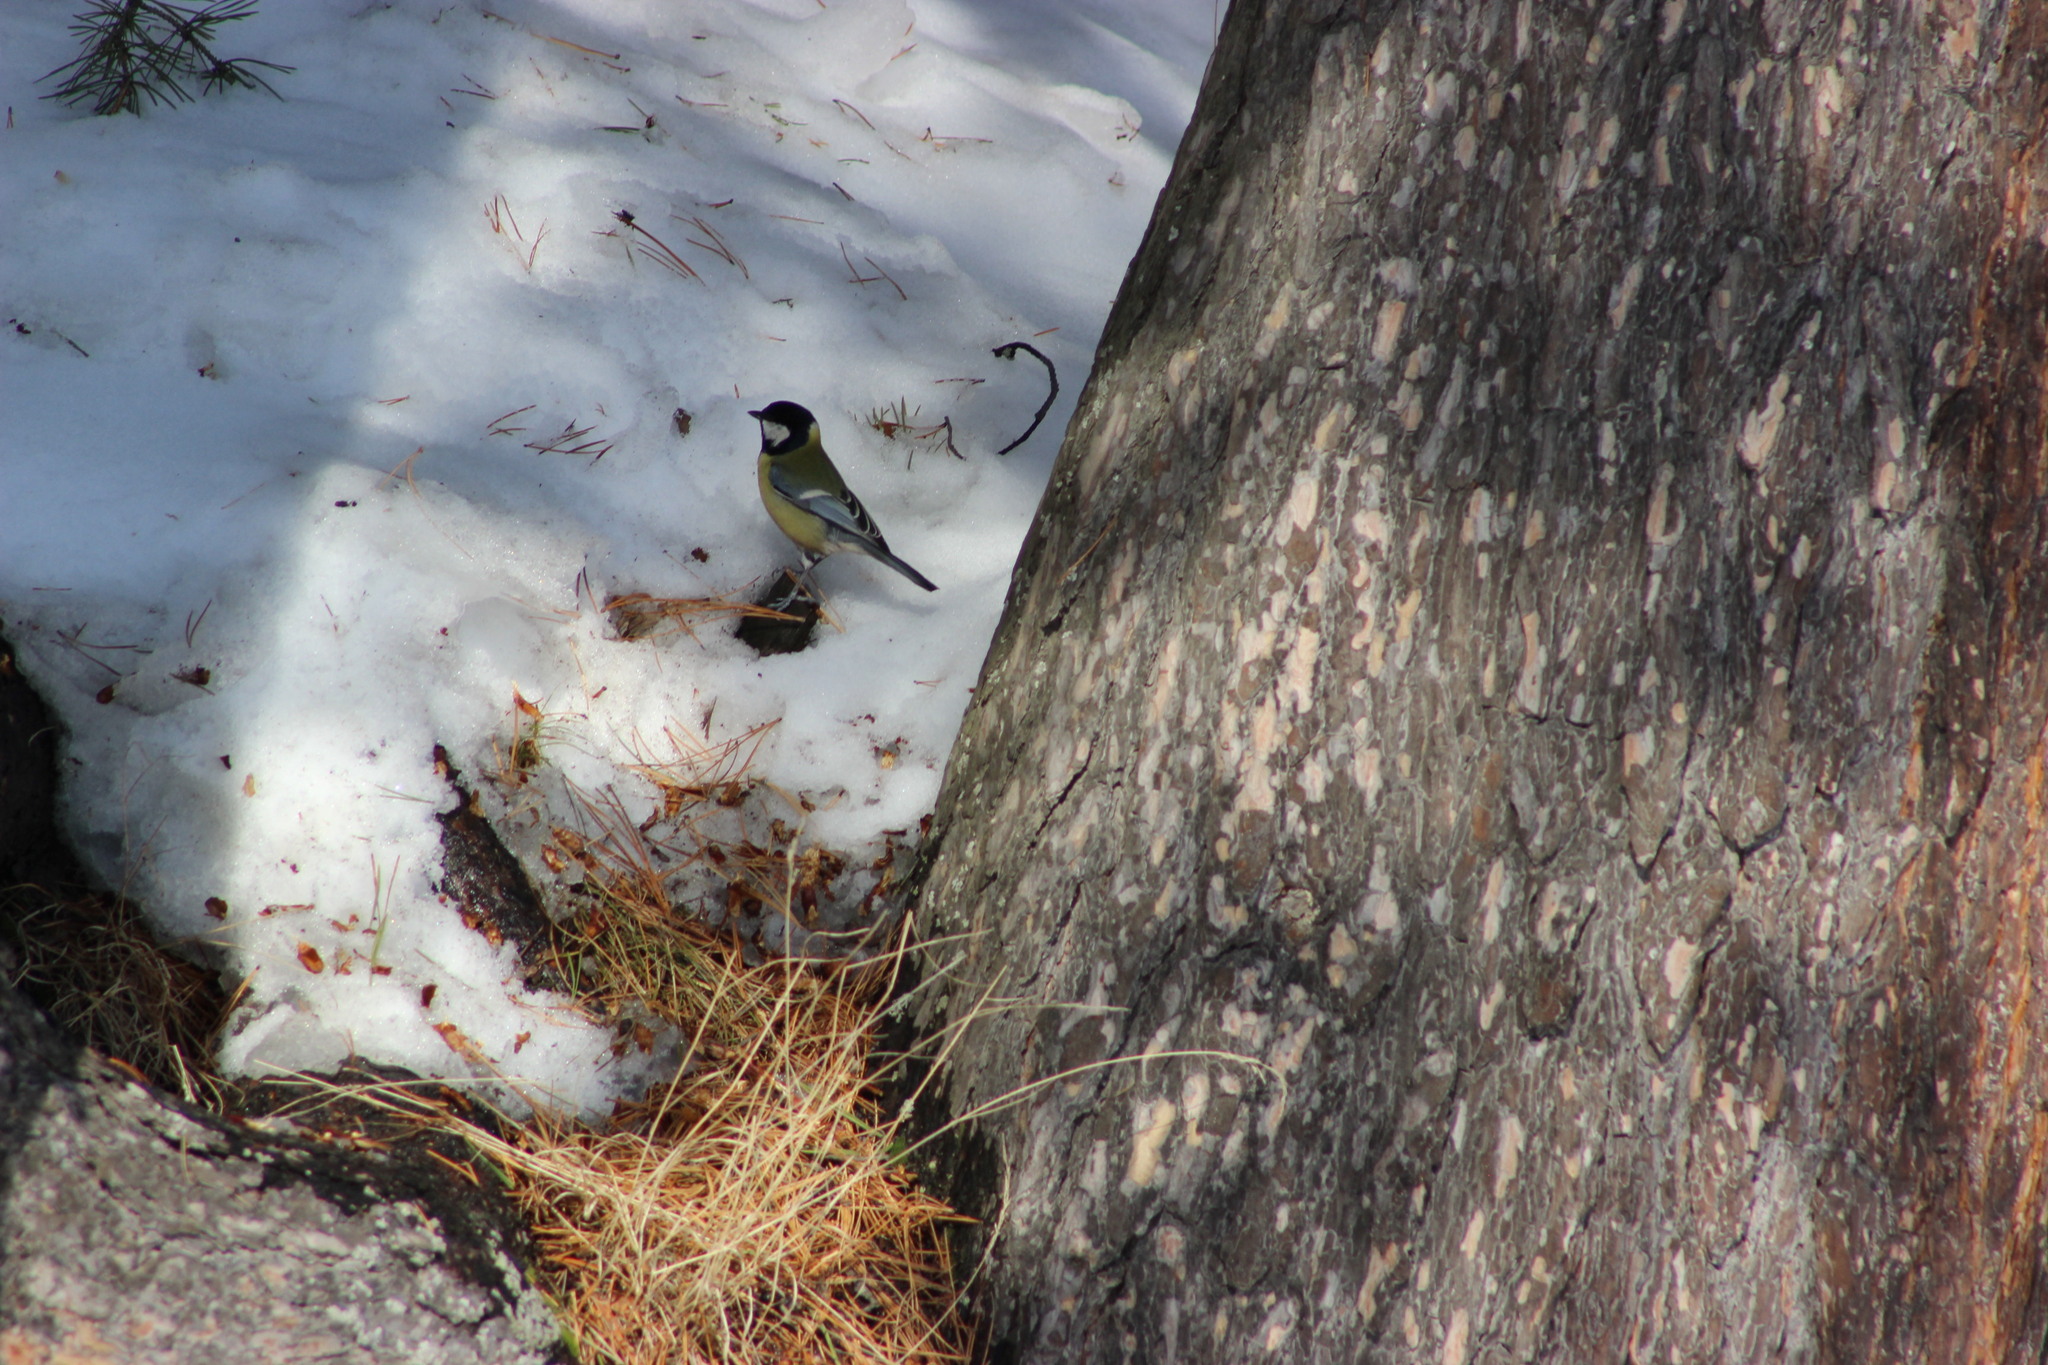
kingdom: Animalia
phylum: Chordata
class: Aves
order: Passeriformes
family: Paridae
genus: Parus
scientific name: Parus major
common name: Great tit
